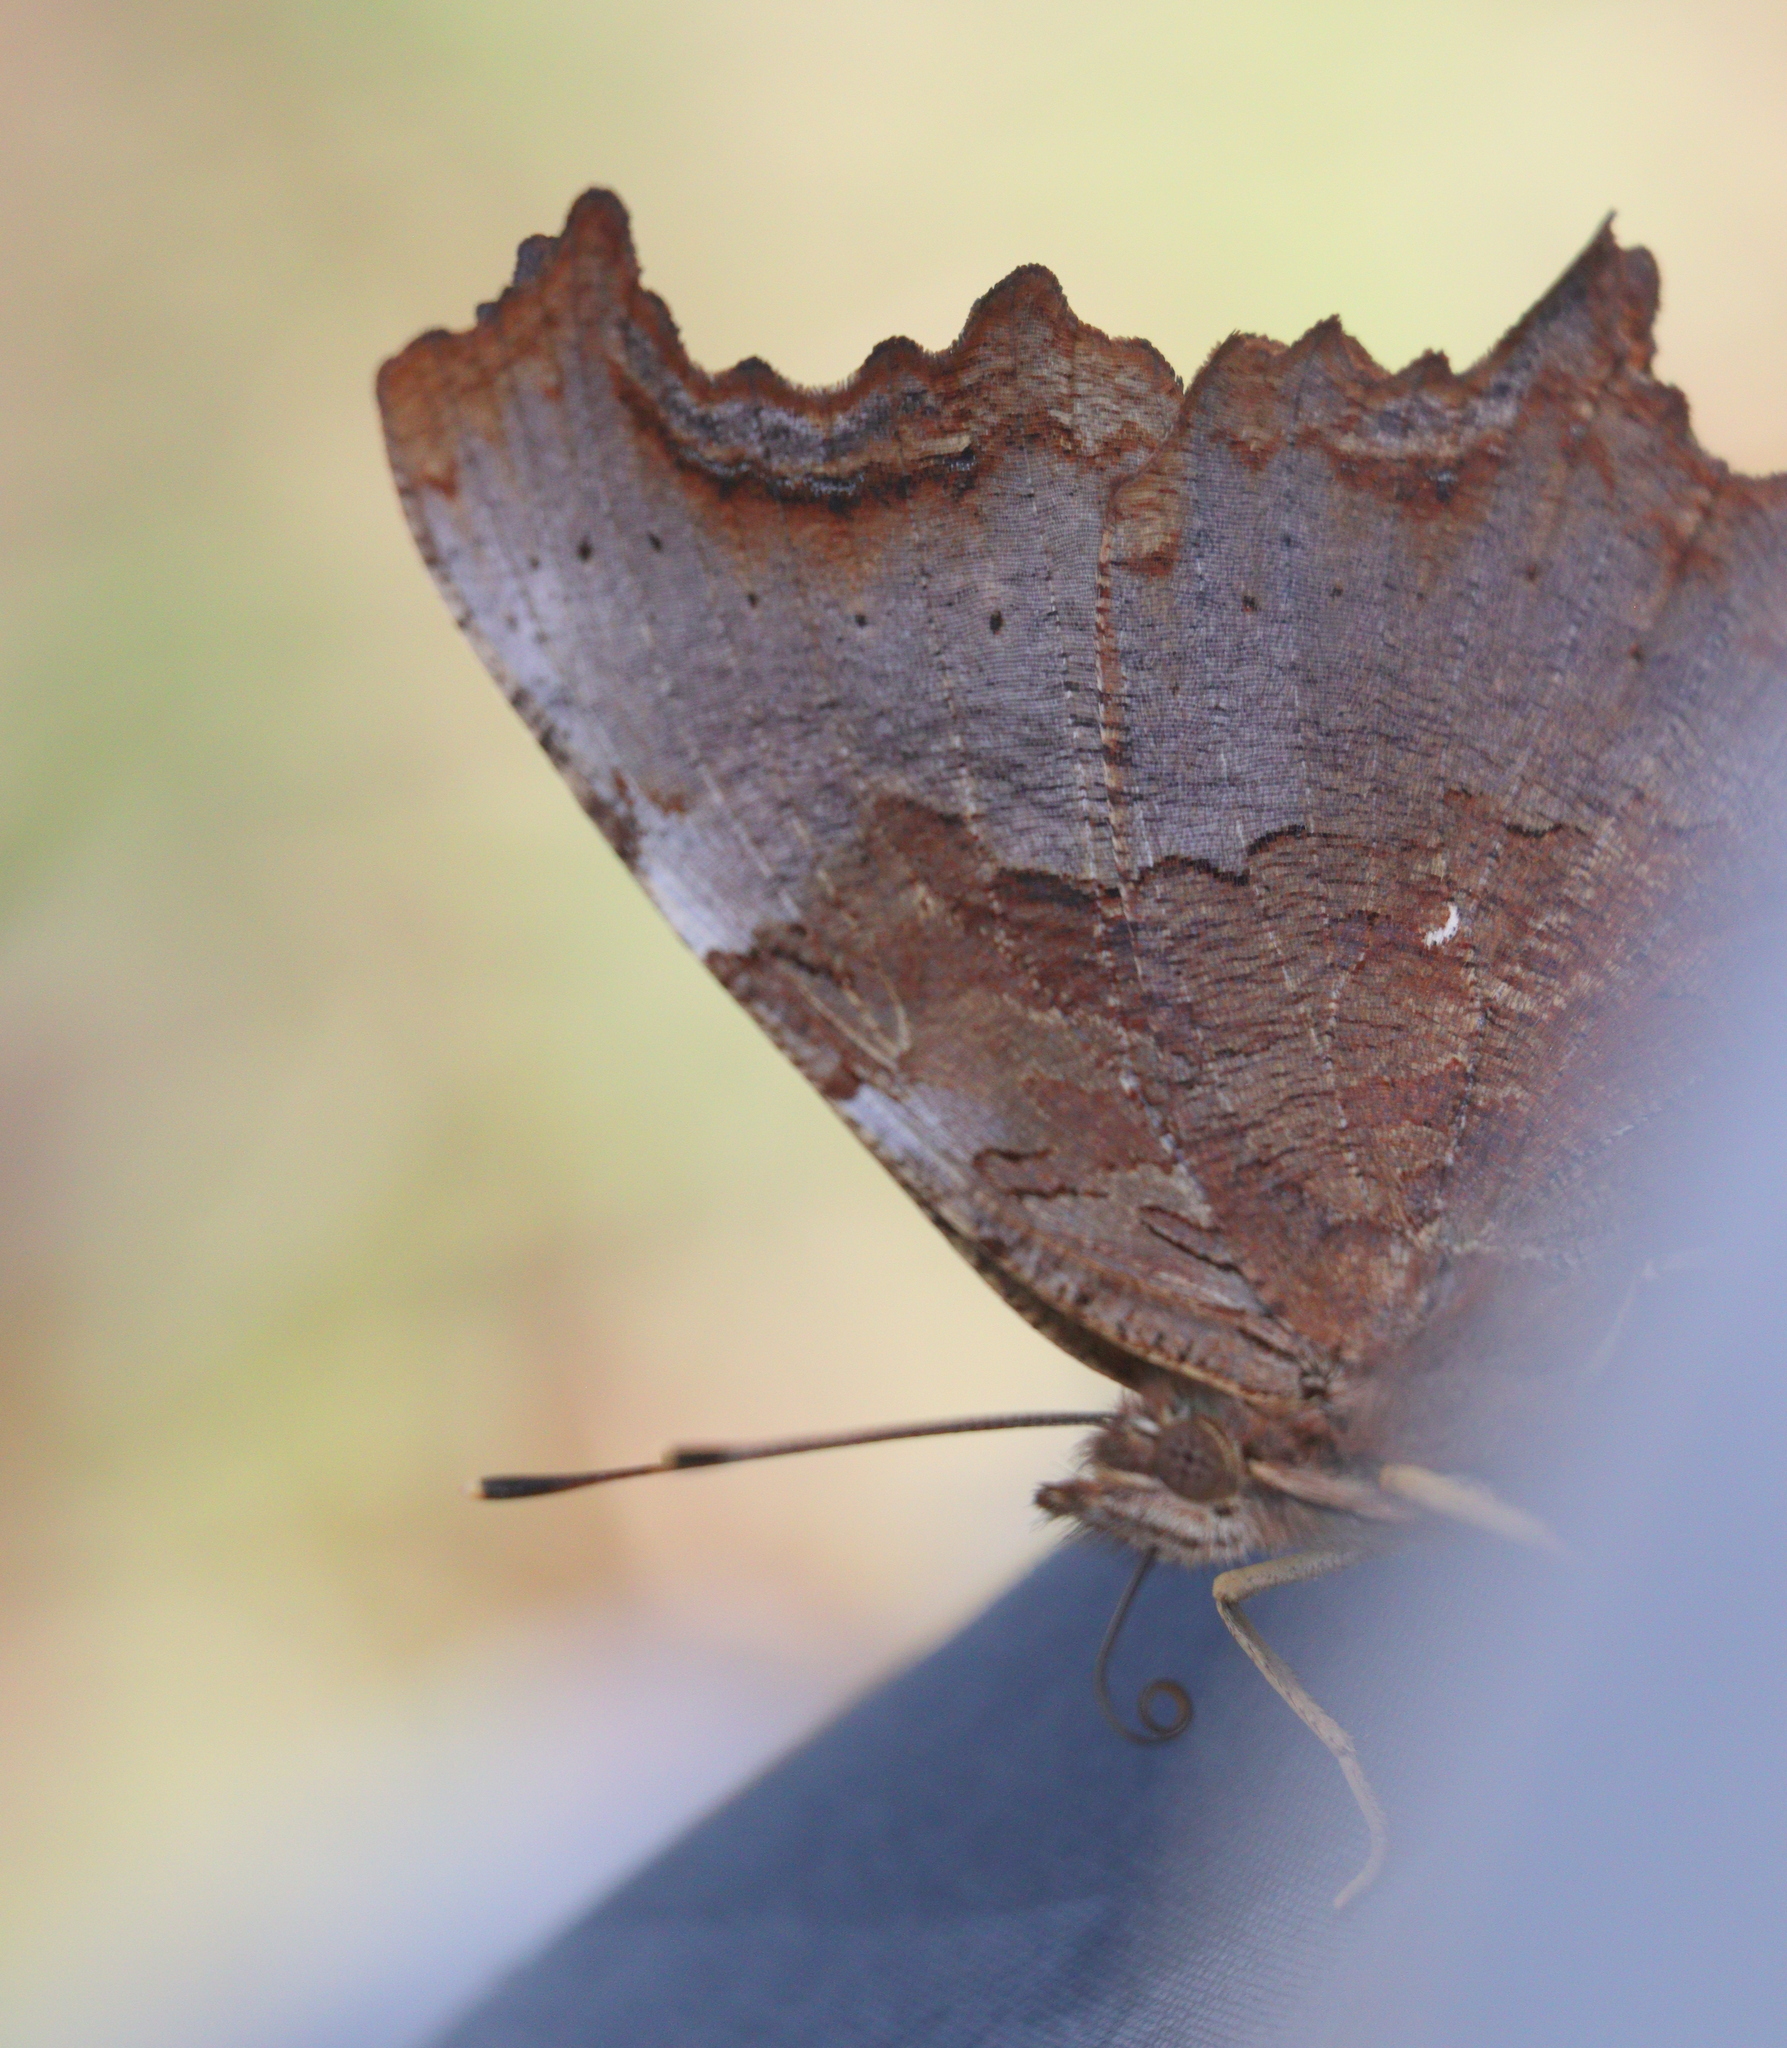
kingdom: Animalia
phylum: Arthropoda
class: Insecta
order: Lepidoptera
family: Nymphalidae
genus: Polygonia
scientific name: Polygonia vaualbum
